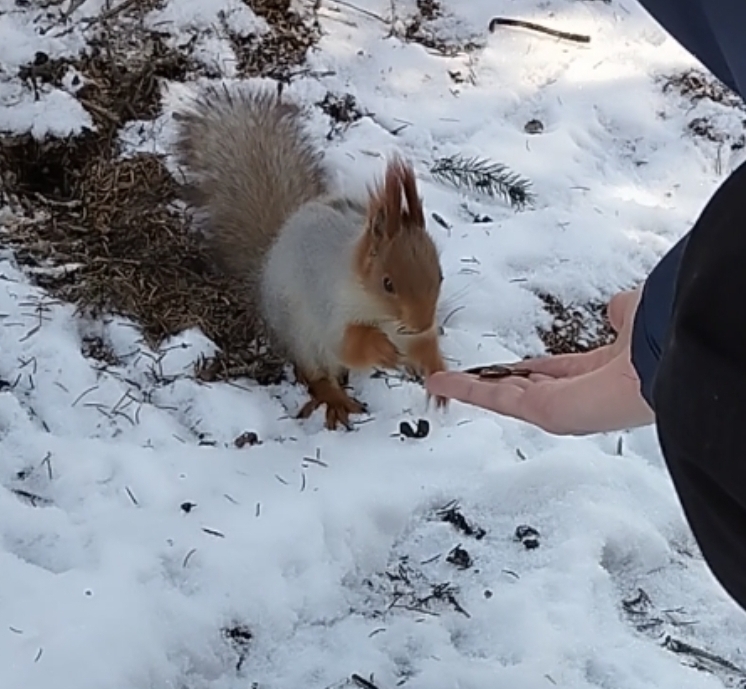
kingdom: Animalia
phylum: Chordata
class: Mammalia
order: Rodentia
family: Sciuridae
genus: Sciurus
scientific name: Sciurus vulgaris
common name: Eurasian red squirrel
